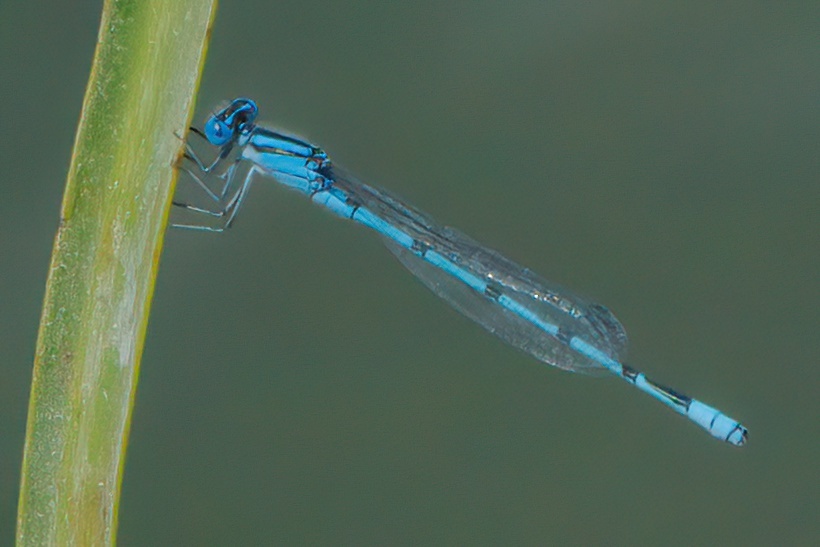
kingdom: Animalia
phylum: Arthropoda
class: Insecta
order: Odonata
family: Coenagrionidae
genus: Enallagma
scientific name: Enallagma doubledayi
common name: Atlantic bluet
